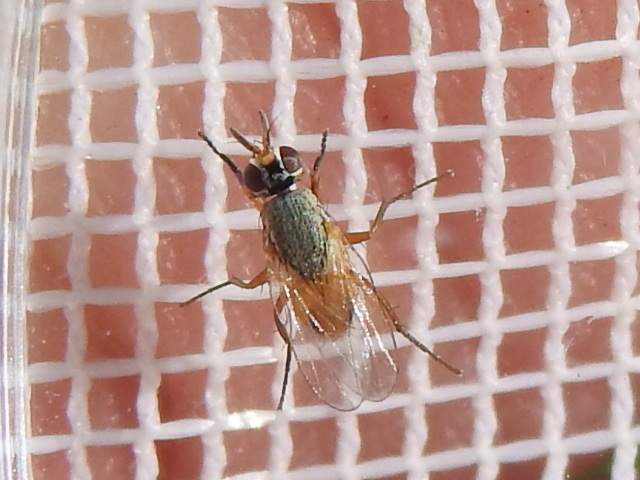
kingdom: Animalia
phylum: Arthropoda
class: Insecta
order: Diptera
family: Muscidae
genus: Atherigona
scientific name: Atherigona reversura
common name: Bermudagrass stem maggot
